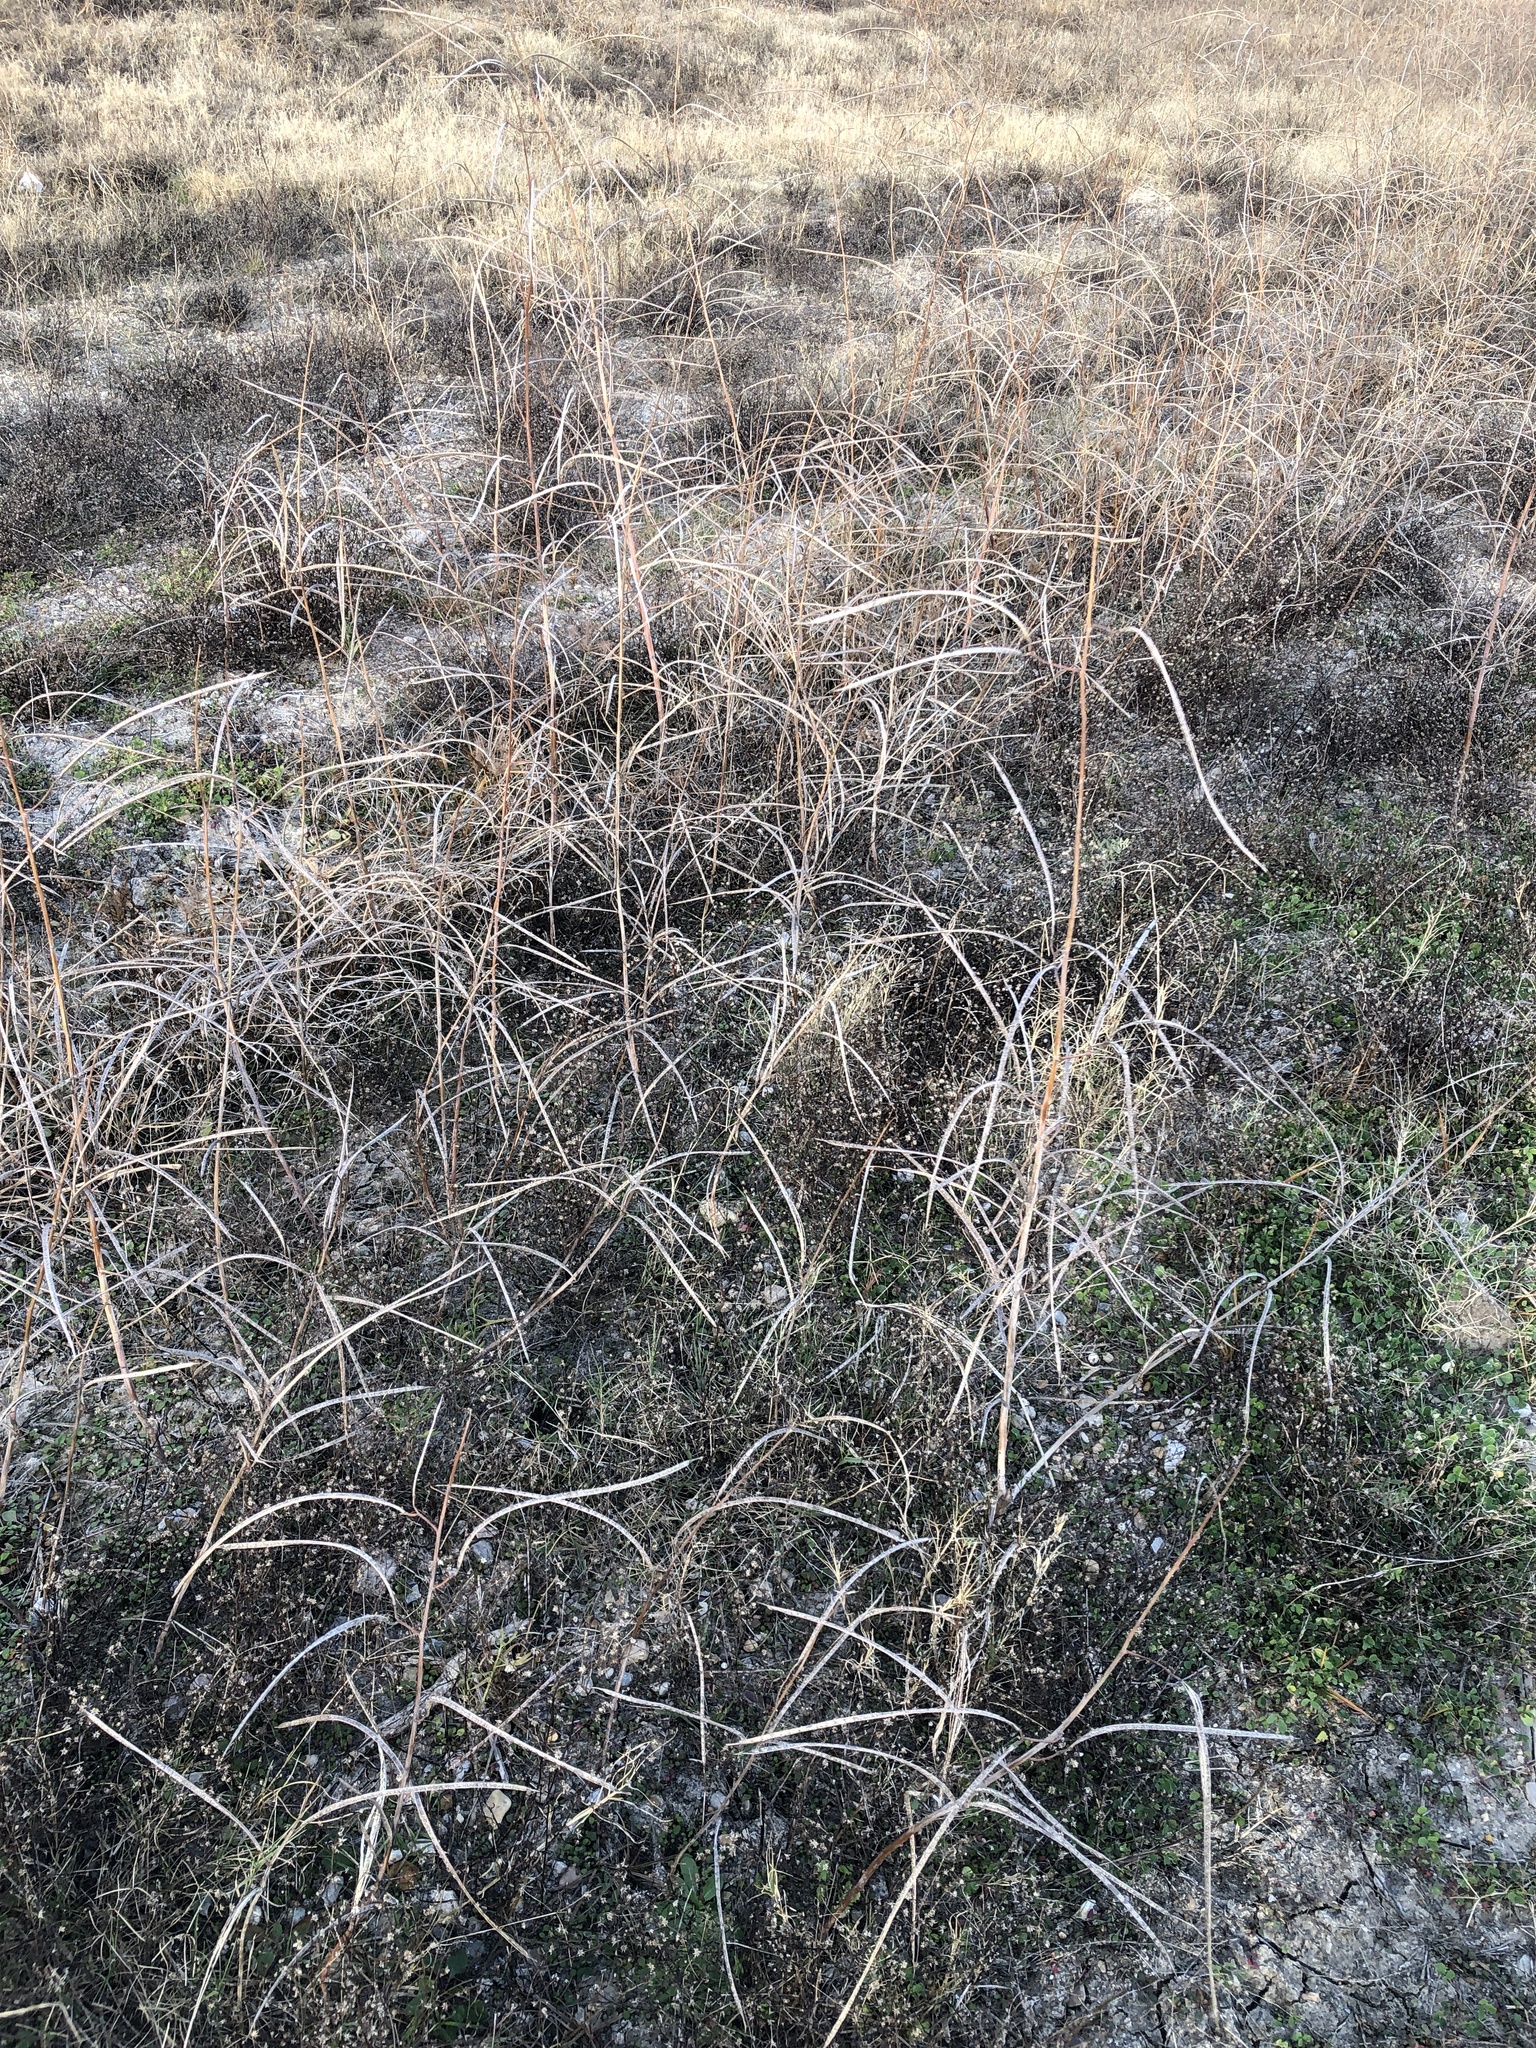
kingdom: Plantae
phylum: Tracheophyta
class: Magnoliopsida
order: Fabales
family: Fabaceae
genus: Sesbania
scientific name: Sesbania herbacea
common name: Bigpod sesbania
